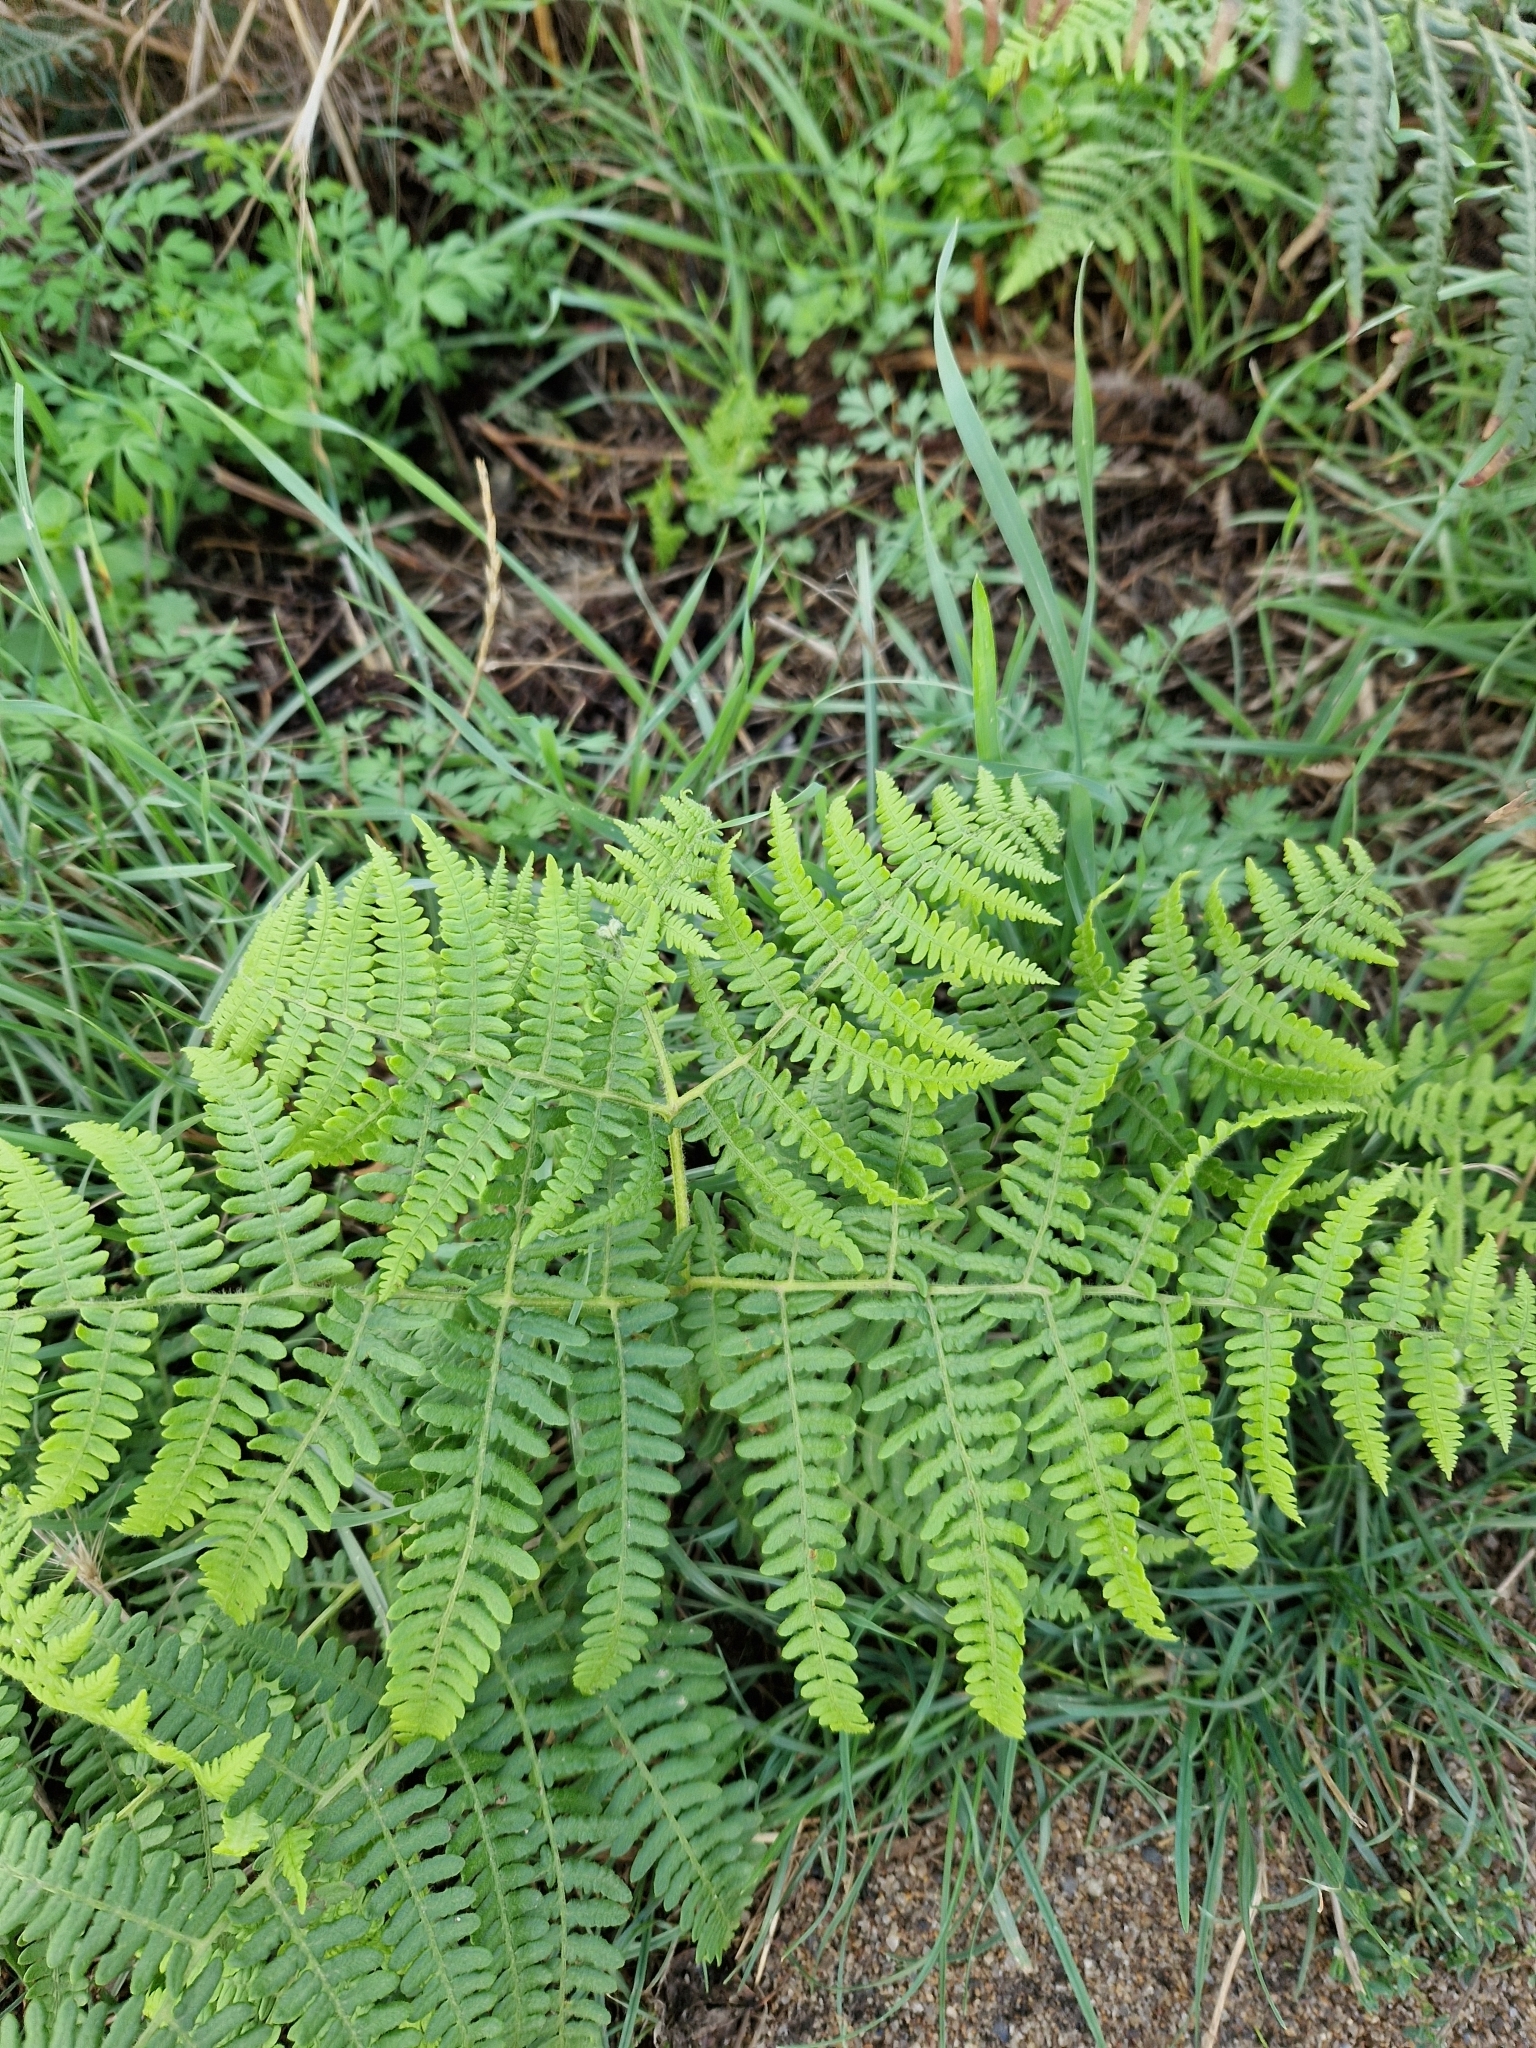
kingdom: Plantae
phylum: Tracheophyta
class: Polypodiopsida
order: Polypodiales
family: Dennstaedtiaceae
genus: Pteridium
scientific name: Pteridium aquilinum
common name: Bracken
